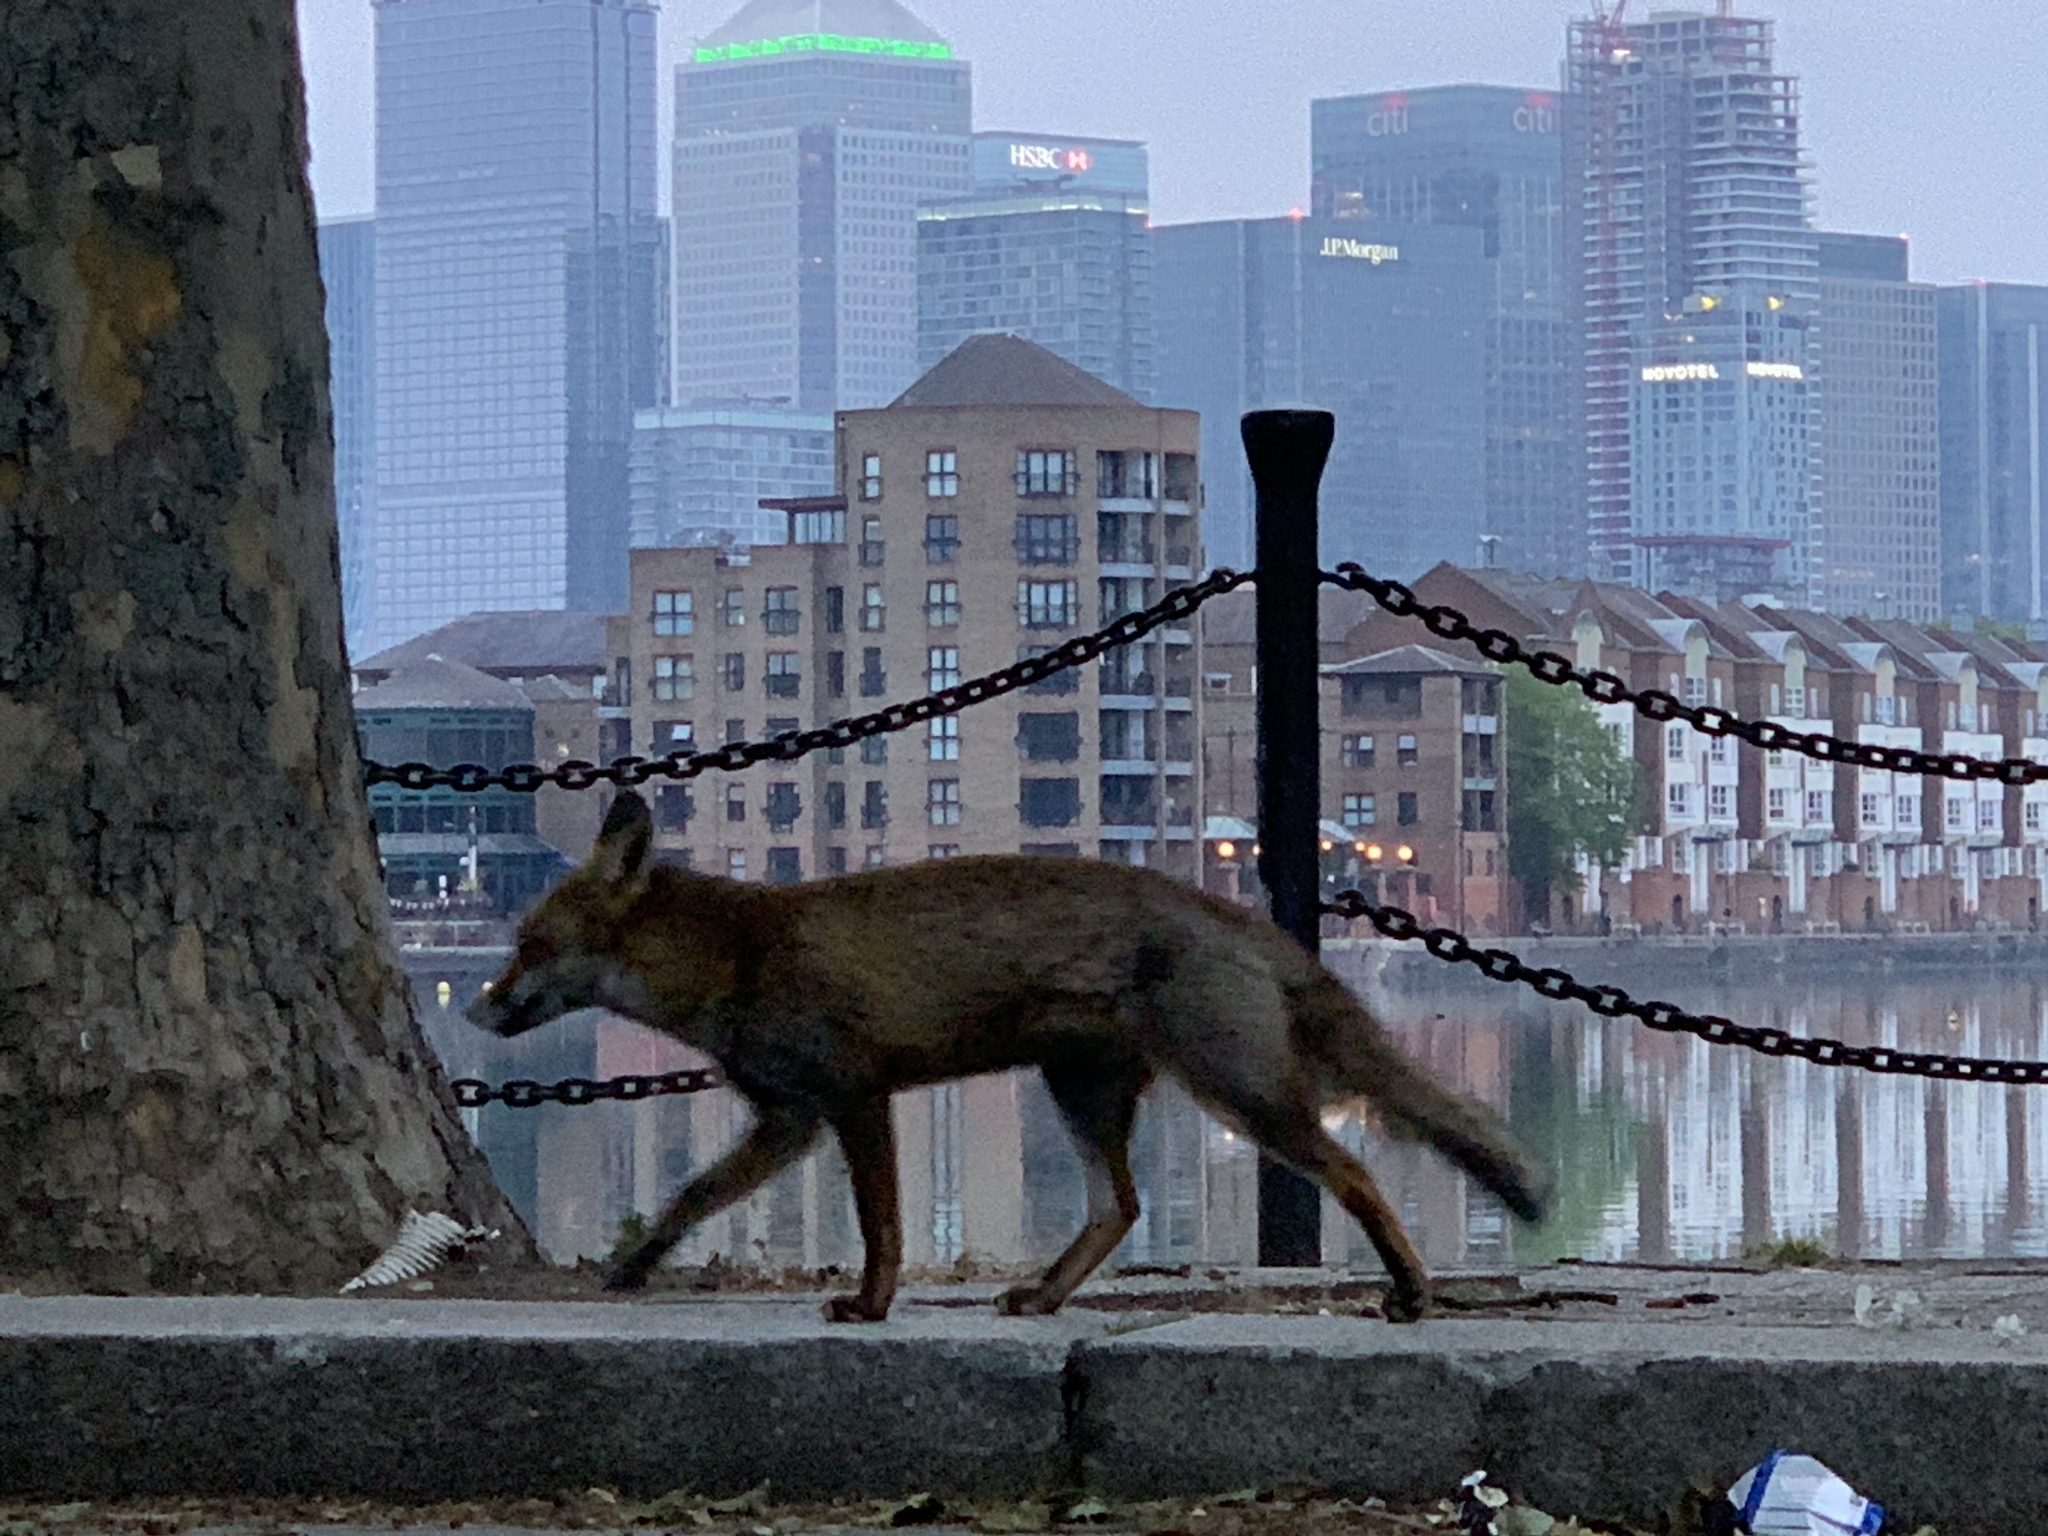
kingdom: Animalia
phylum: Chordata
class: Mammalia
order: Carnivora
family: Canidae
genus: Vulpes
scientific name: Vulpes vulpes
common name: Red fox
